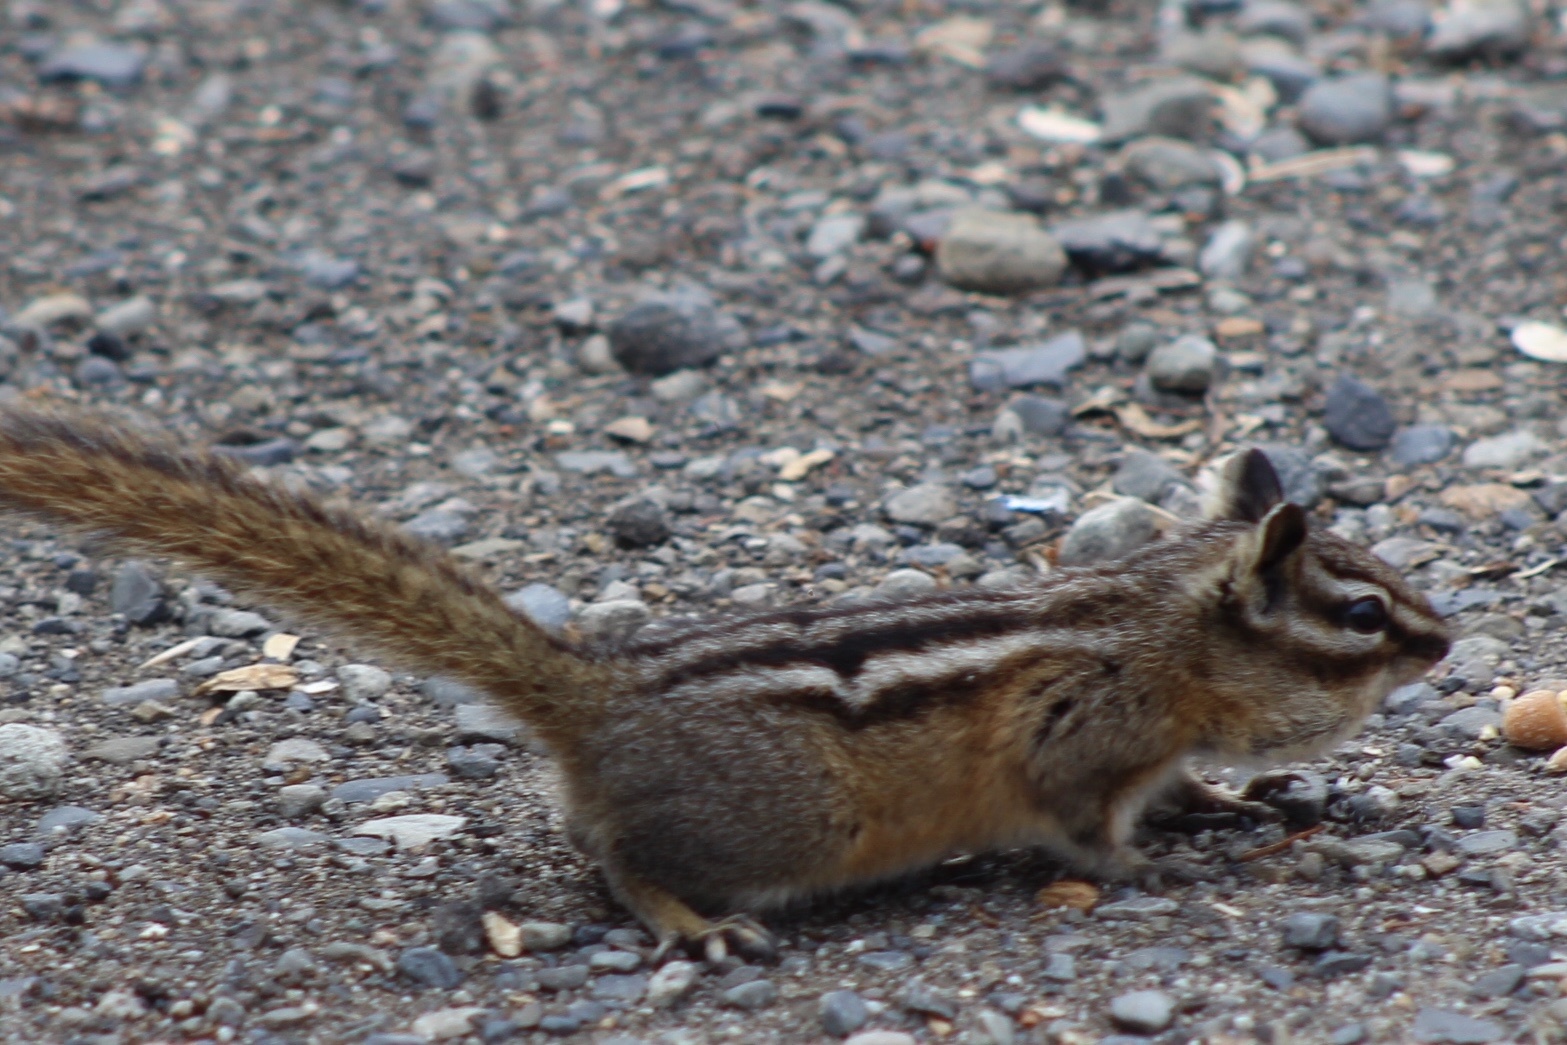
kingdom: Animalia
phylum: Chordata
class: Mammalia
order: Rodentia
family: Sciuridae
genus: Tamias
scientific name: Tamias amoenus
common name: Yellow-pine chipmunk
